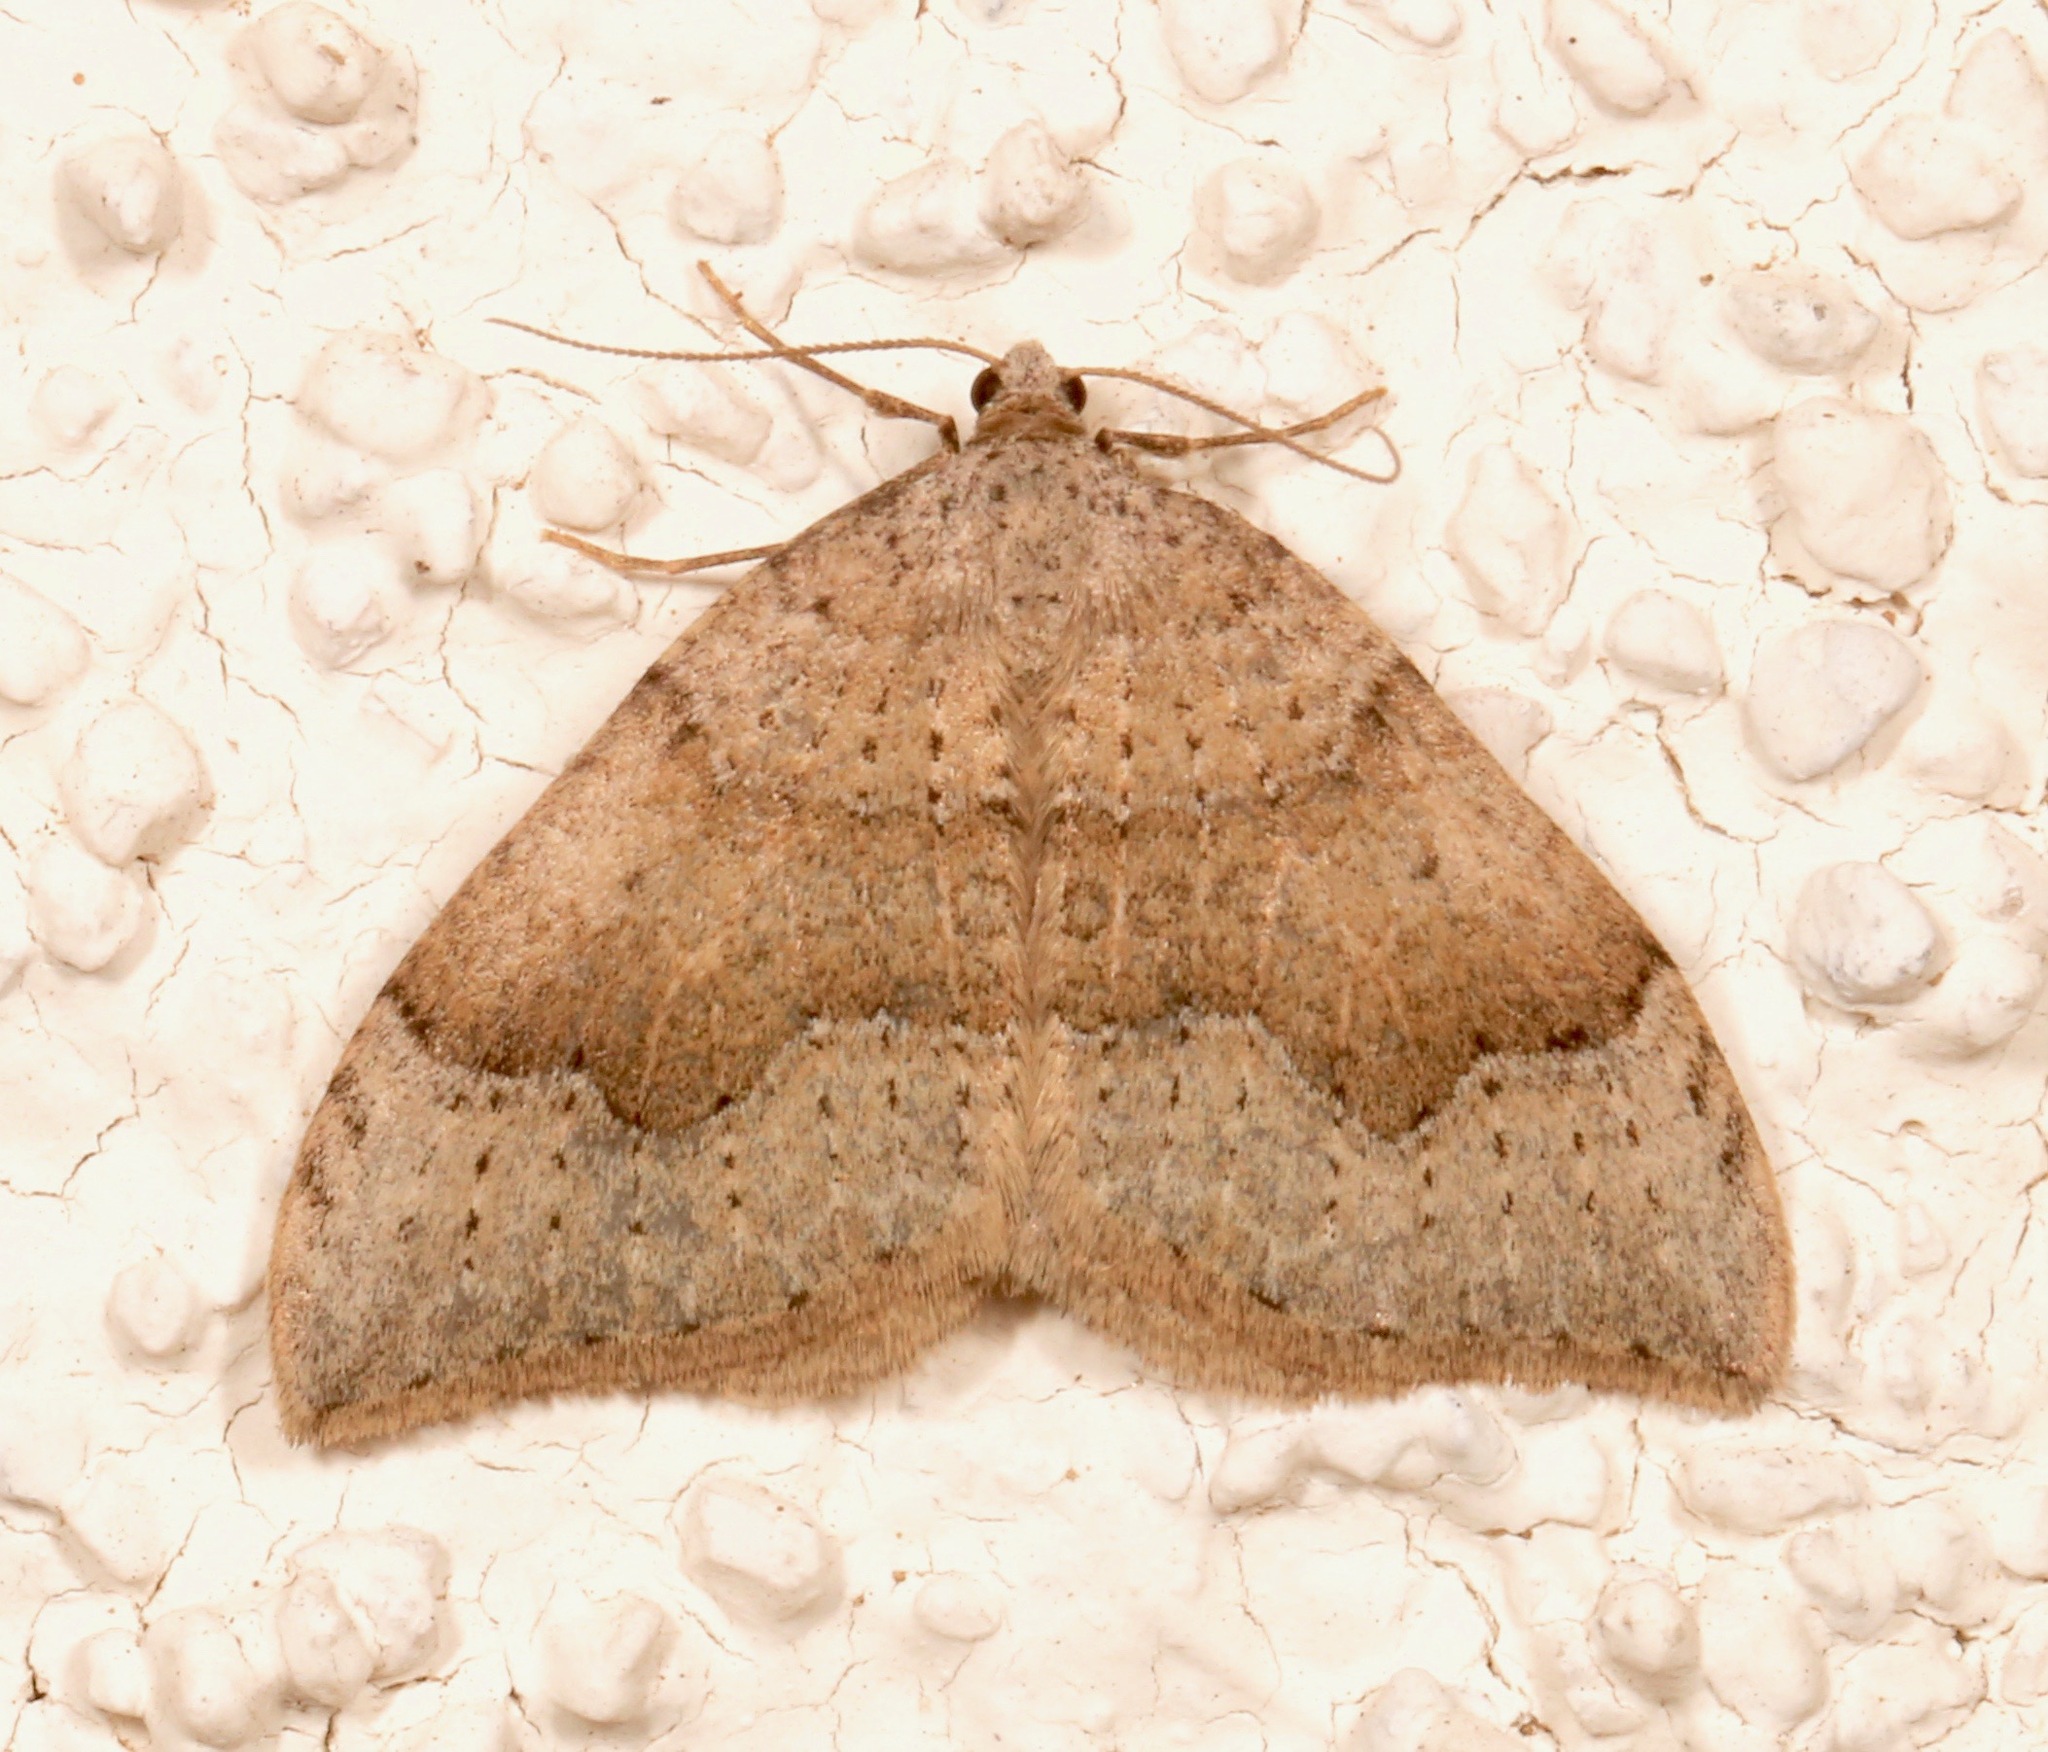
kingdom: Animalia
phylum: Arthropoda
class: Insecta
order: Lepidoptera
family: Geometridae
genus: Zenophleps
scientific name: Zenophleps lignicolorata
